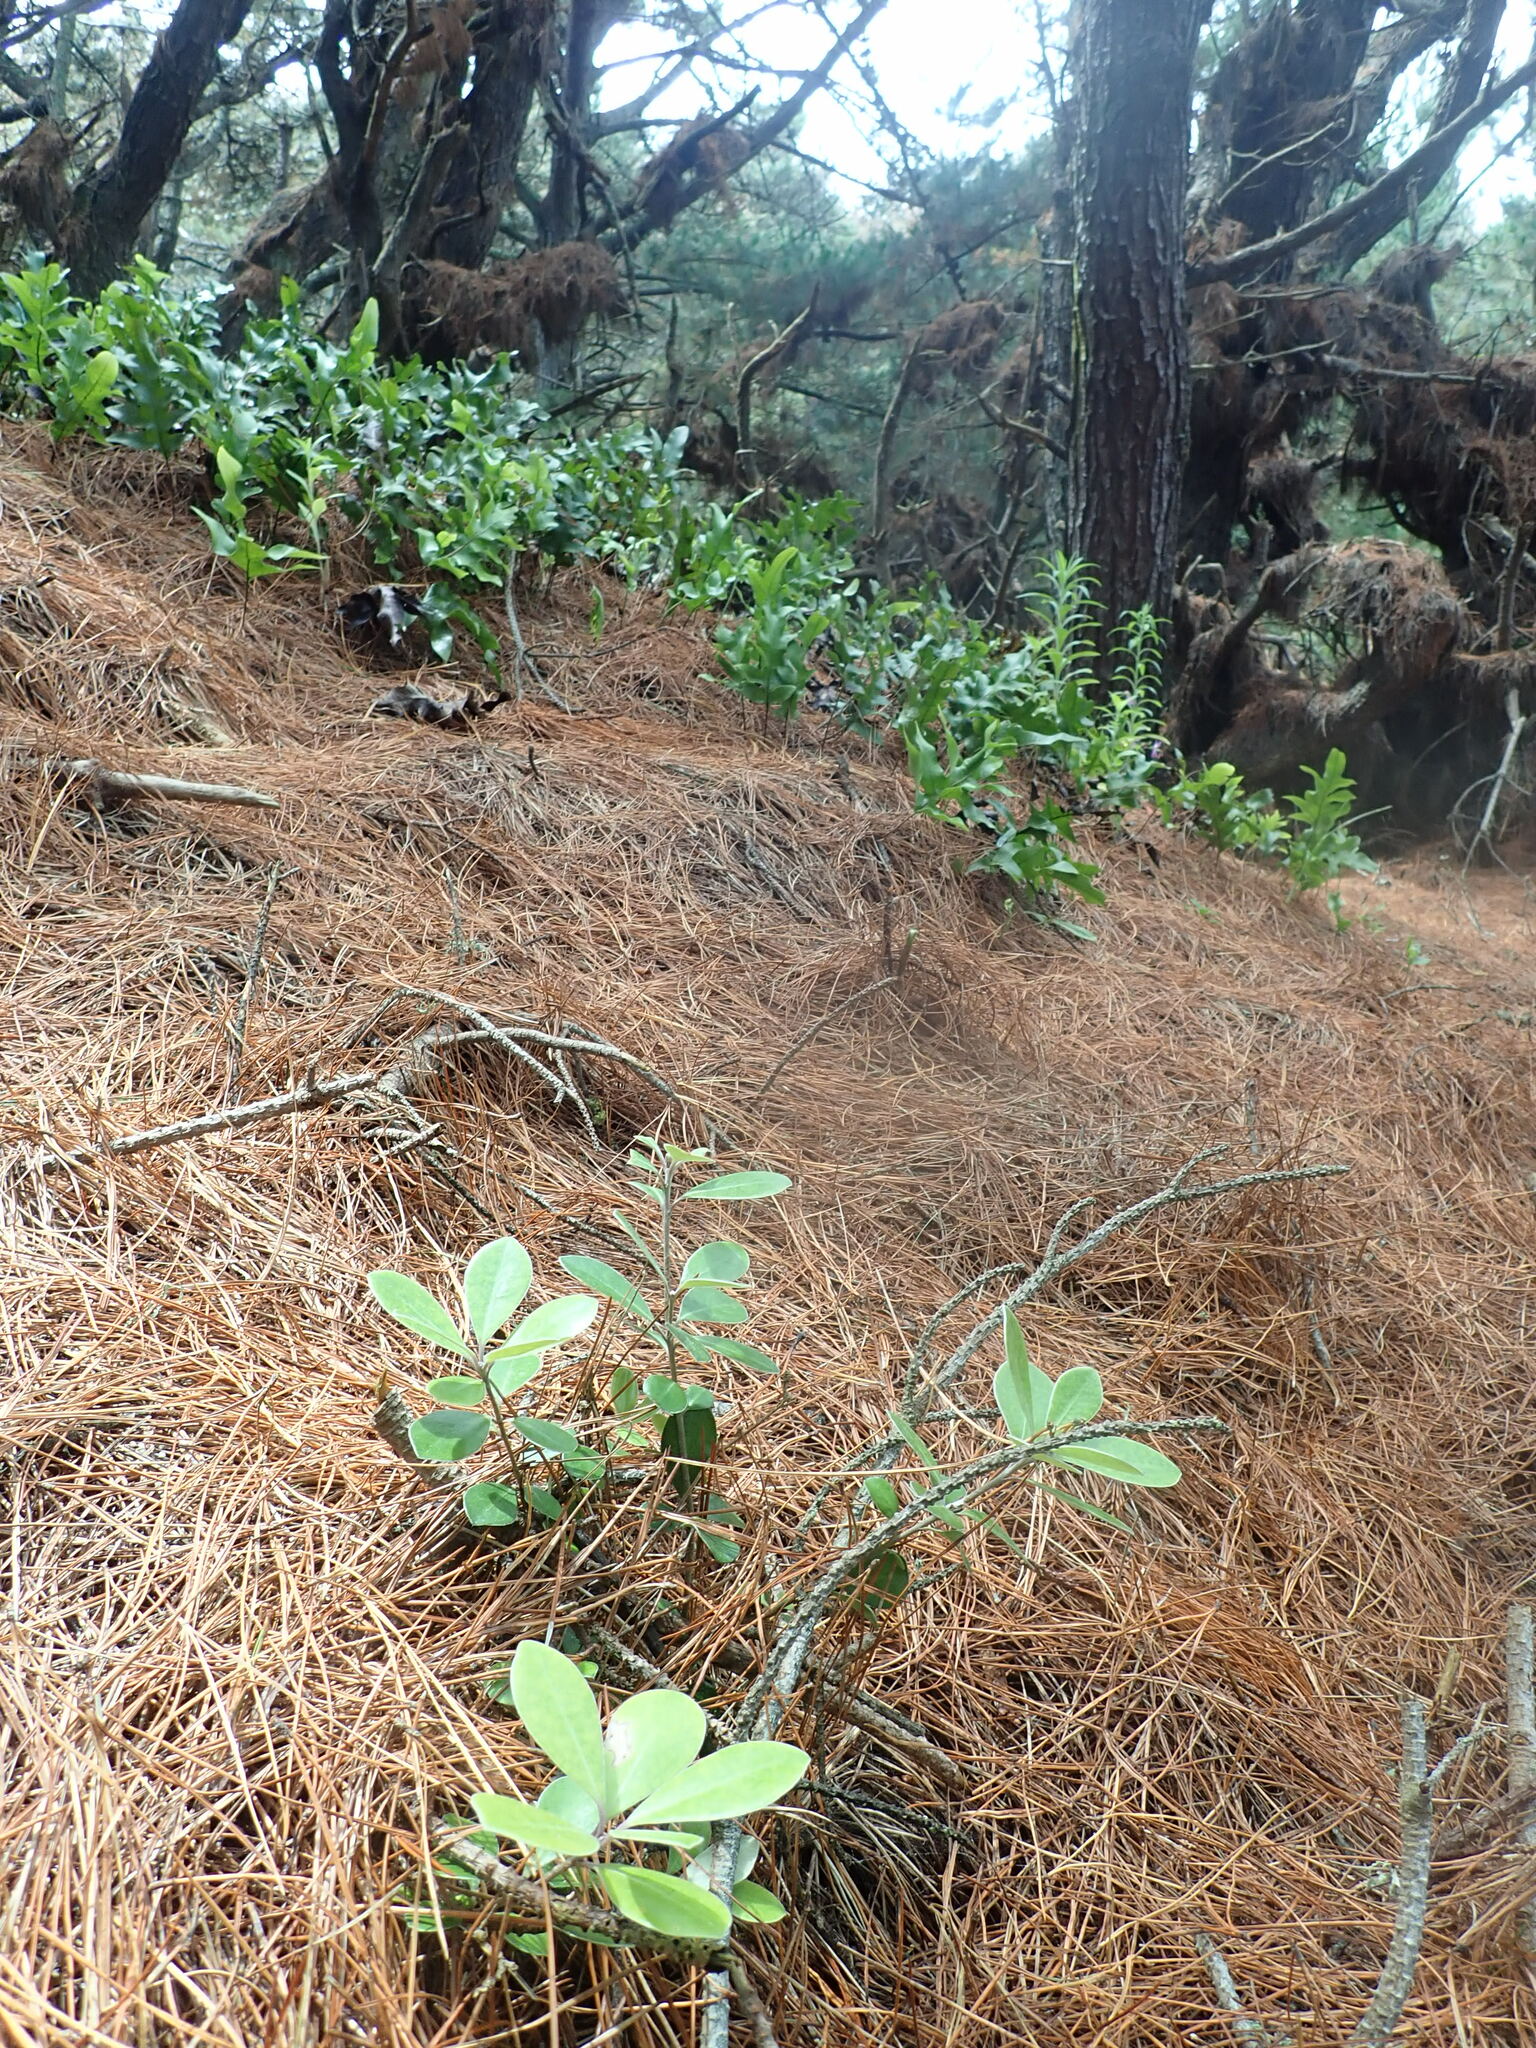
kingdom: Plantae
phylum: Tracheophyta
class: Magnoliopsida
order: Apiales
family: Pittosporaceae
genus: Pittosporum
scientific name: Pittosporum crassifolium
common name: Karo
